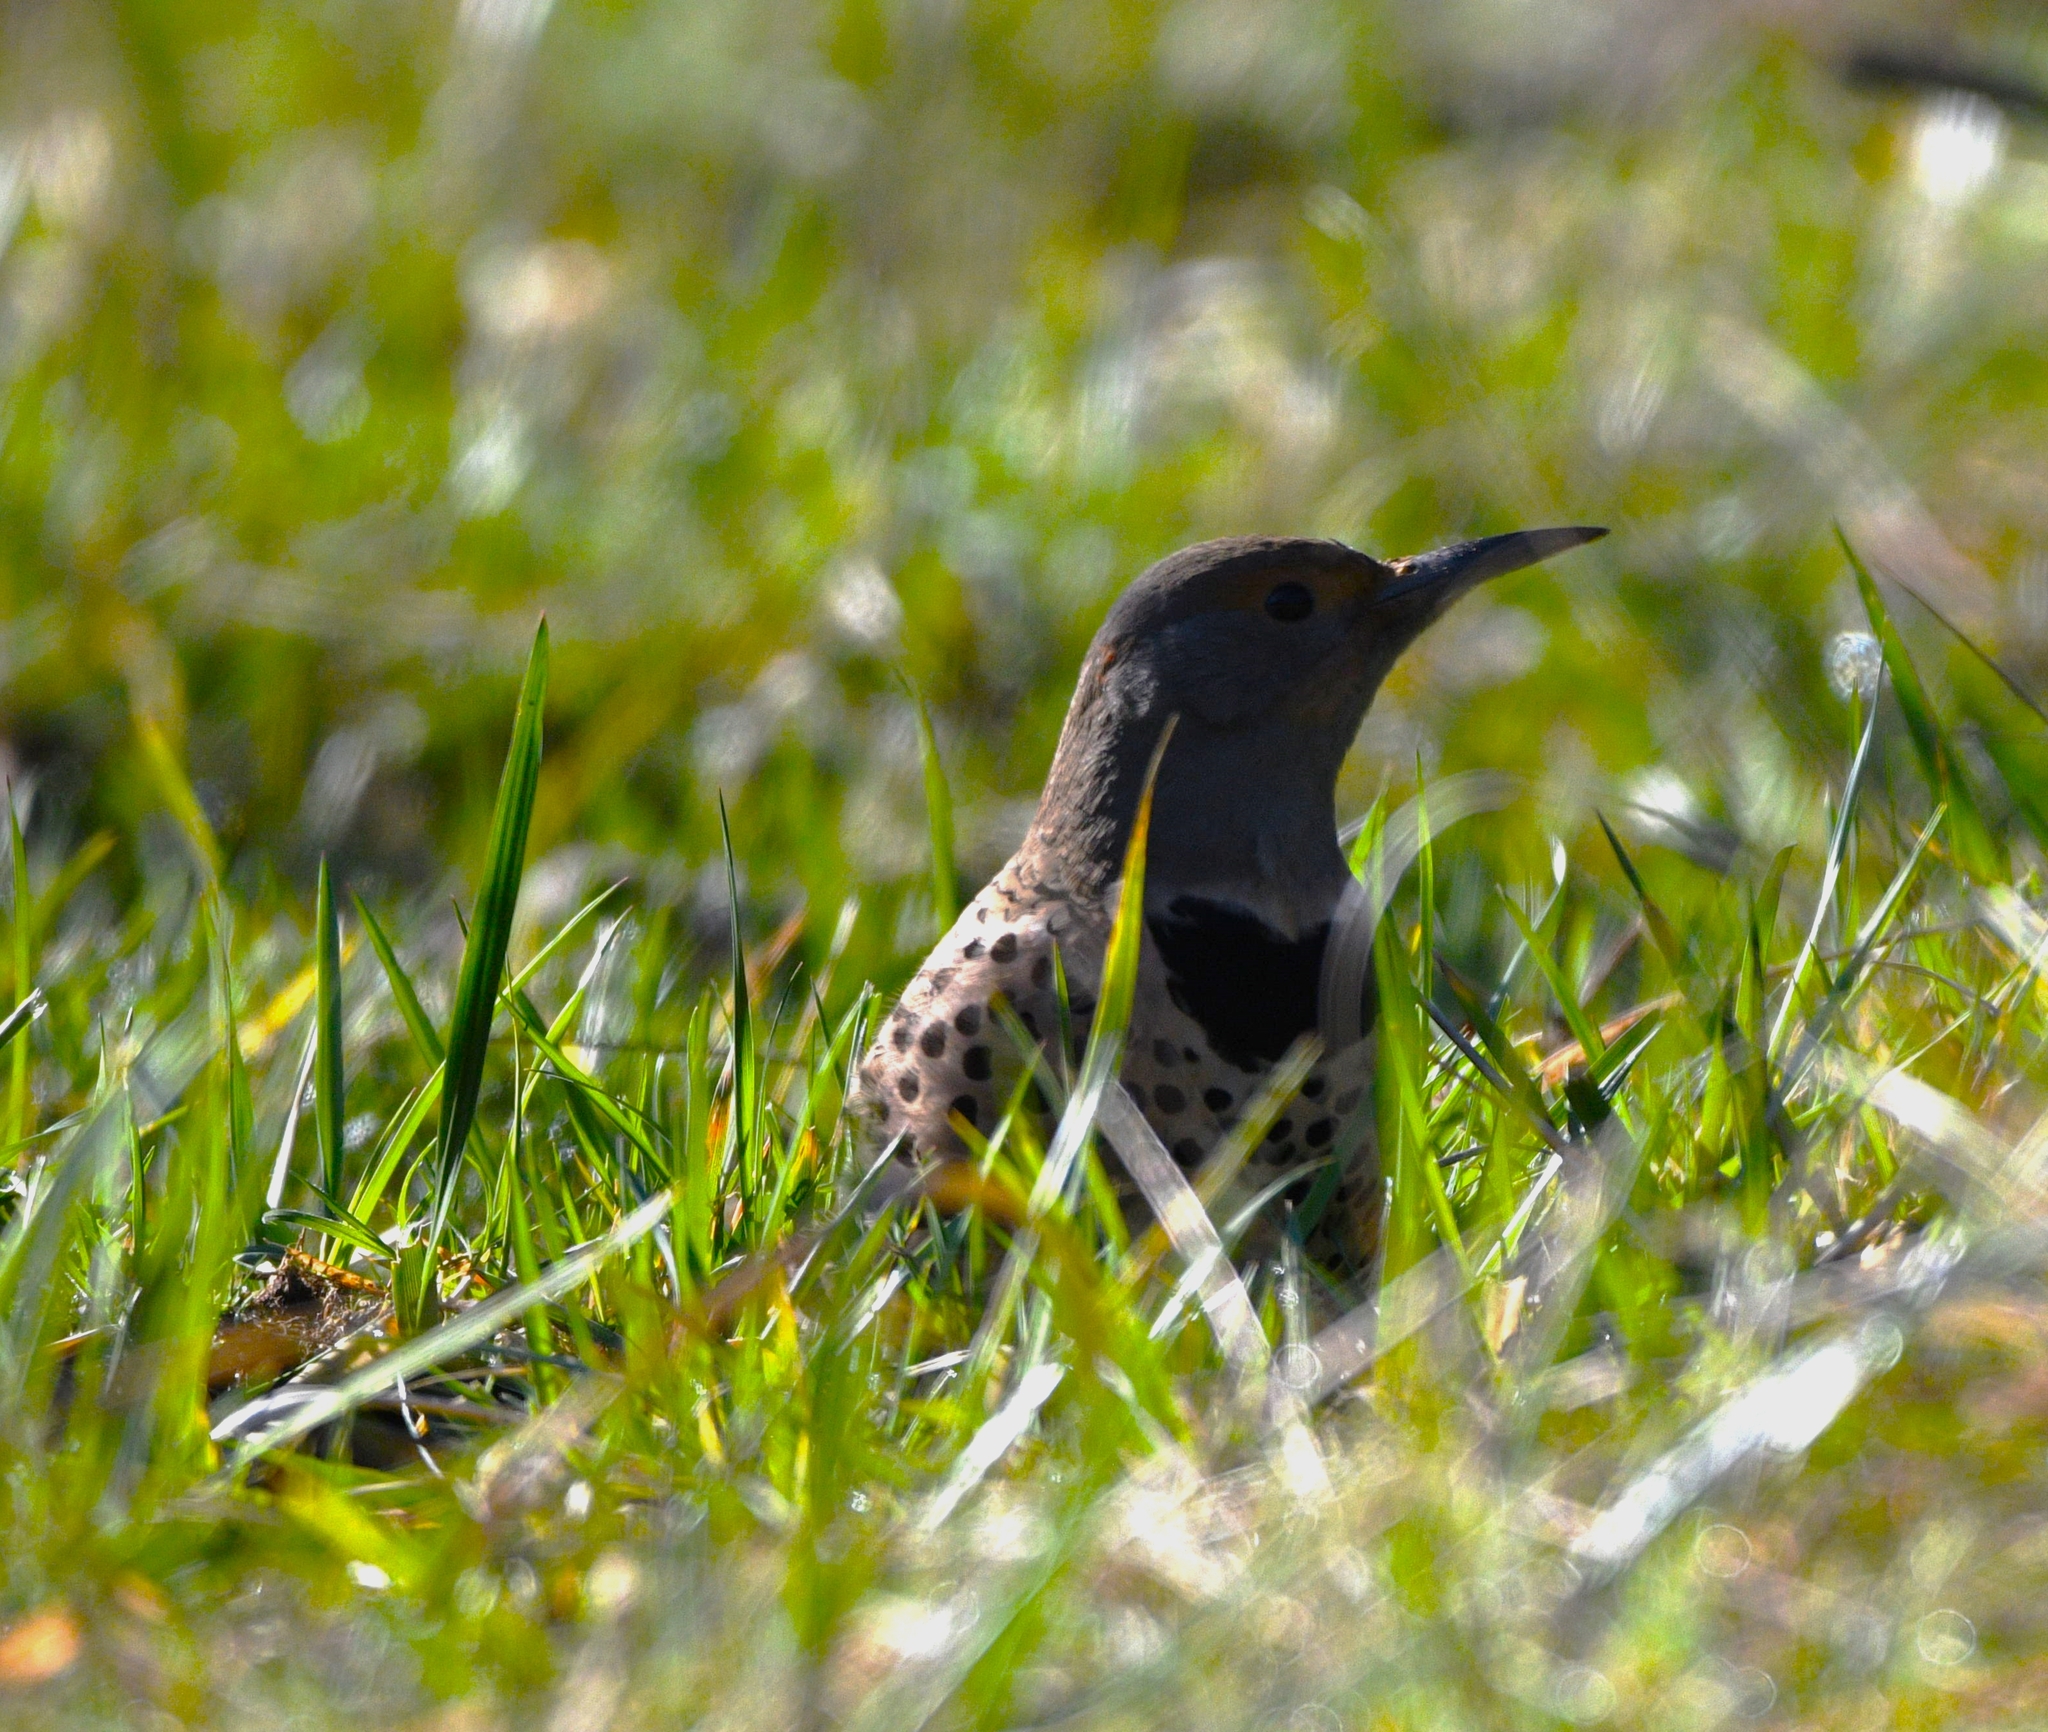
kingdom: Animalia
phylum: Chordata
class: Aves
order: Piciformes
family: Picidae
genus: Colaptes
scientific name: Colaptes auratus
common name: Northern flicker
